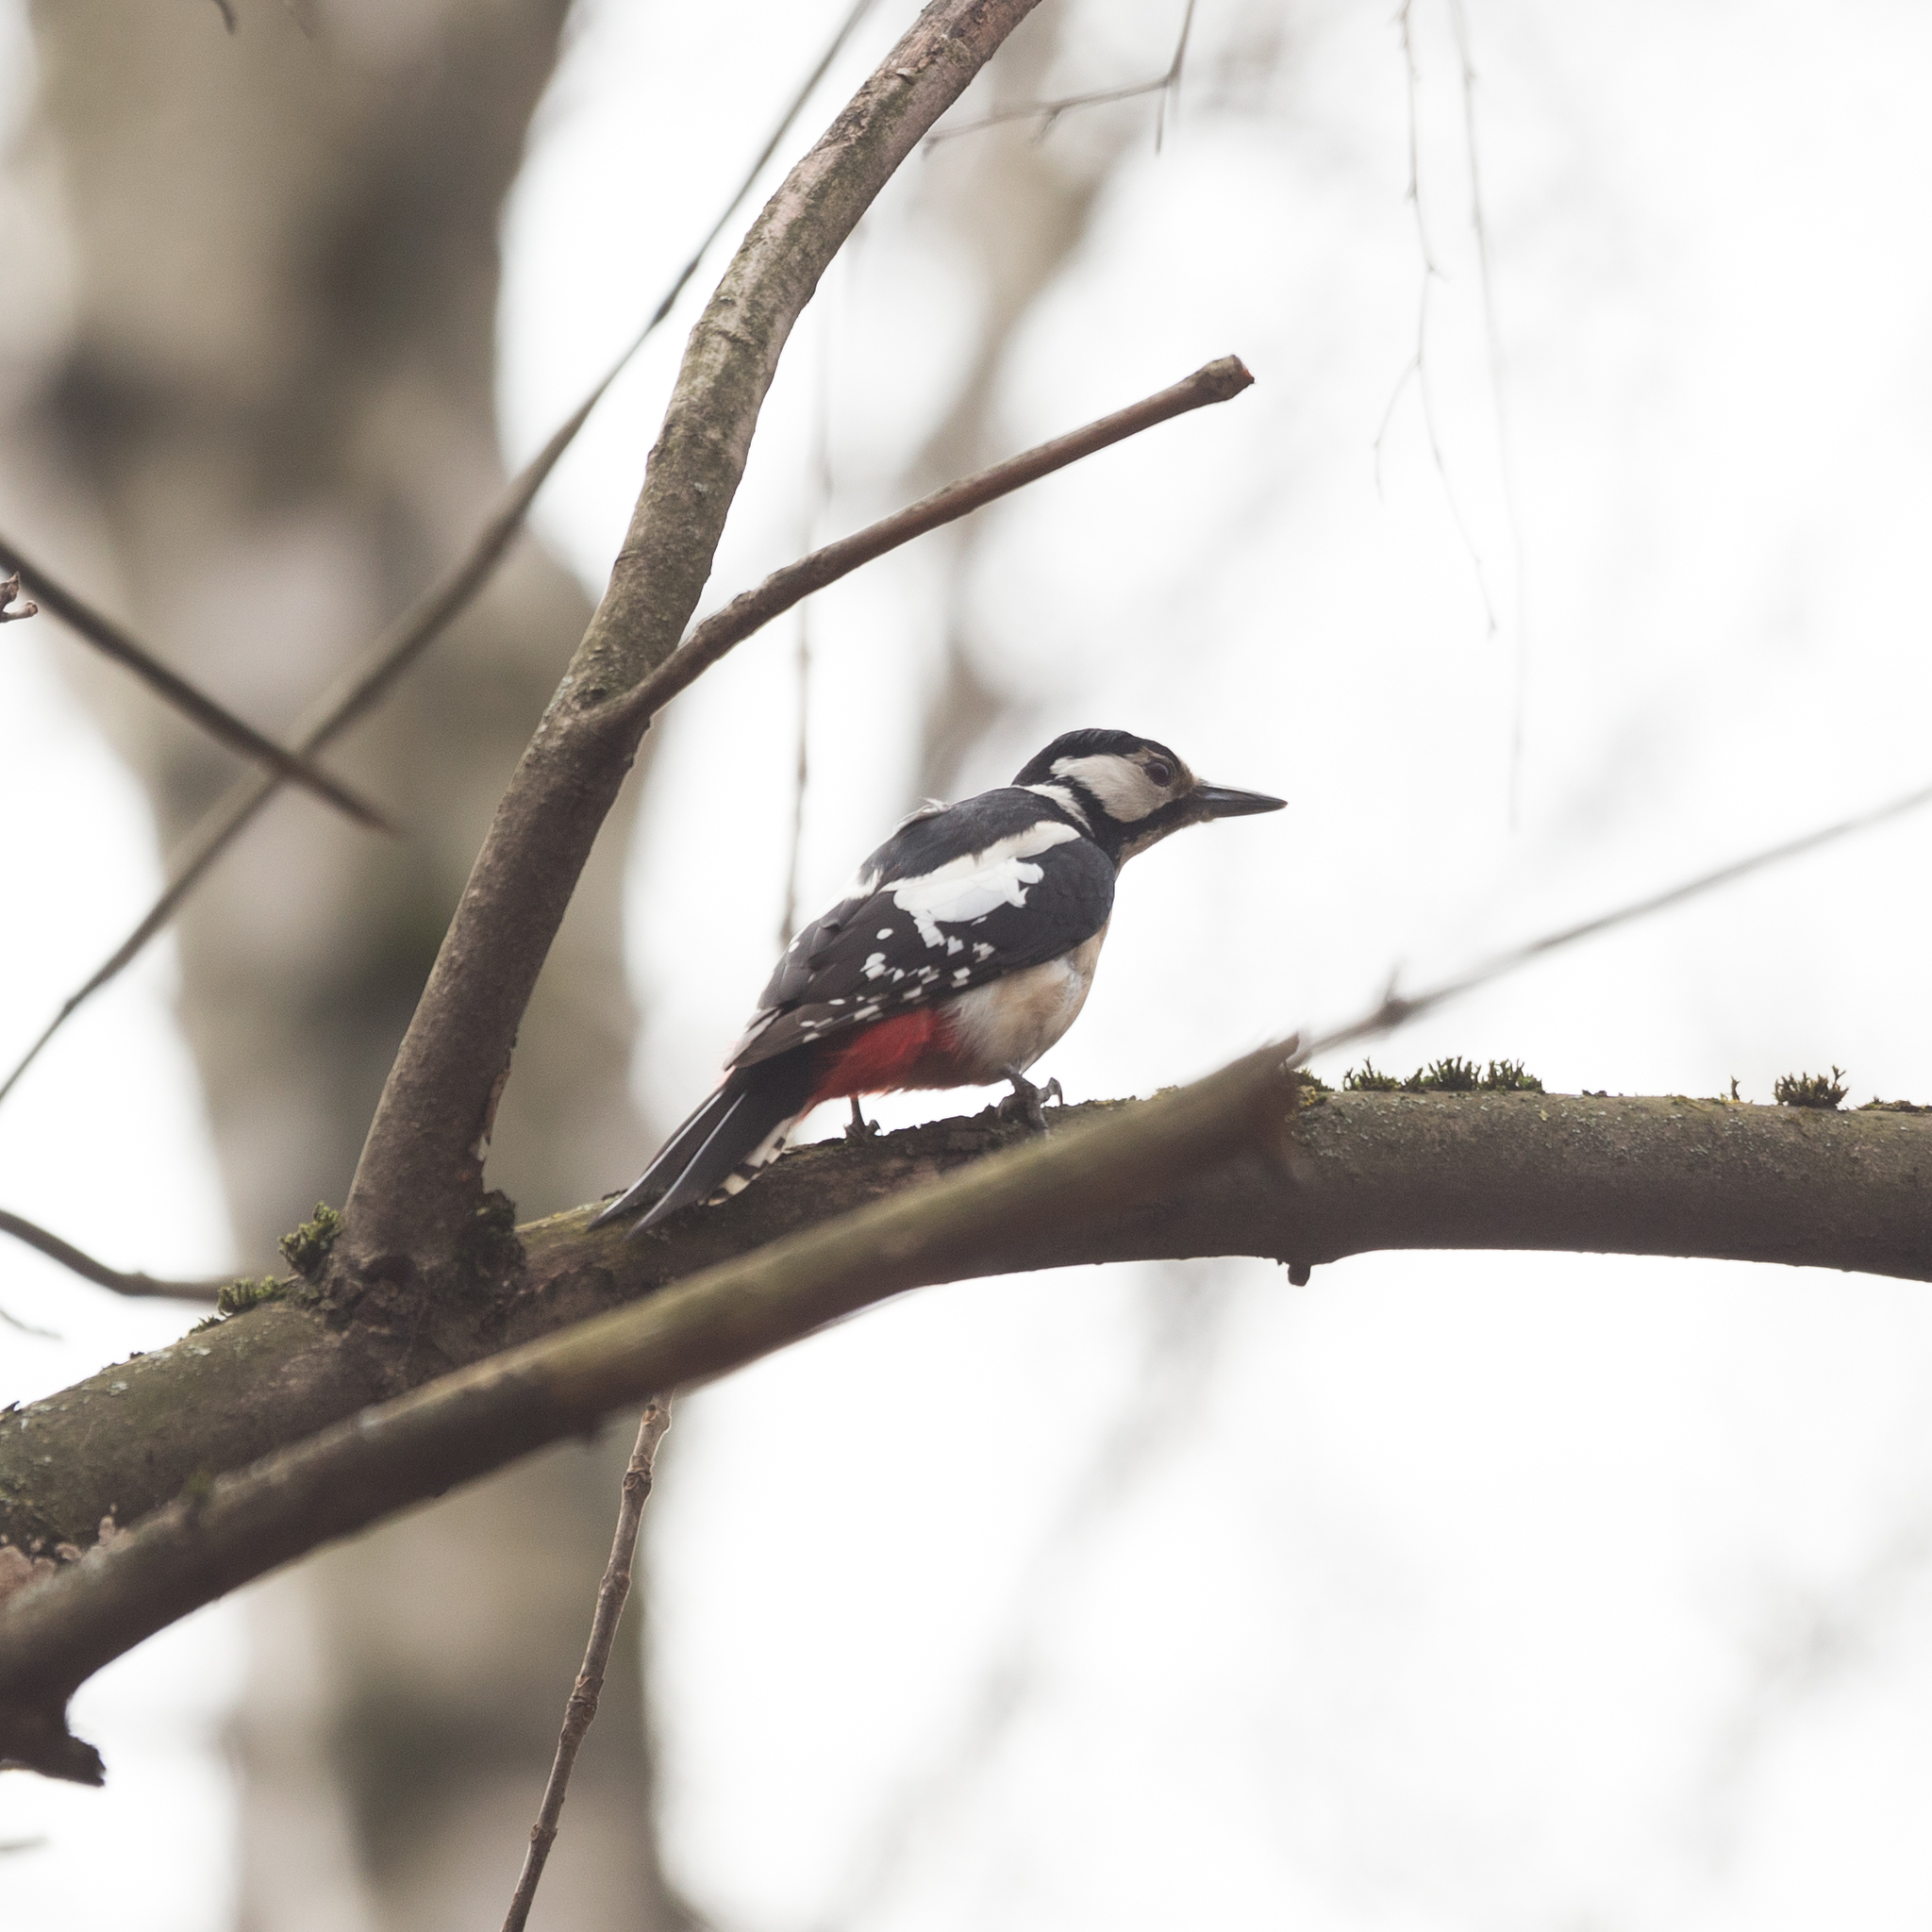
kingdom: Animalia
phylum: Chordata
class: Aves
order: Piciformes
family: Picidae
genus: Dendrocopos
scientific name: Dendrocopos major
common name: Great spotted woodpecker
